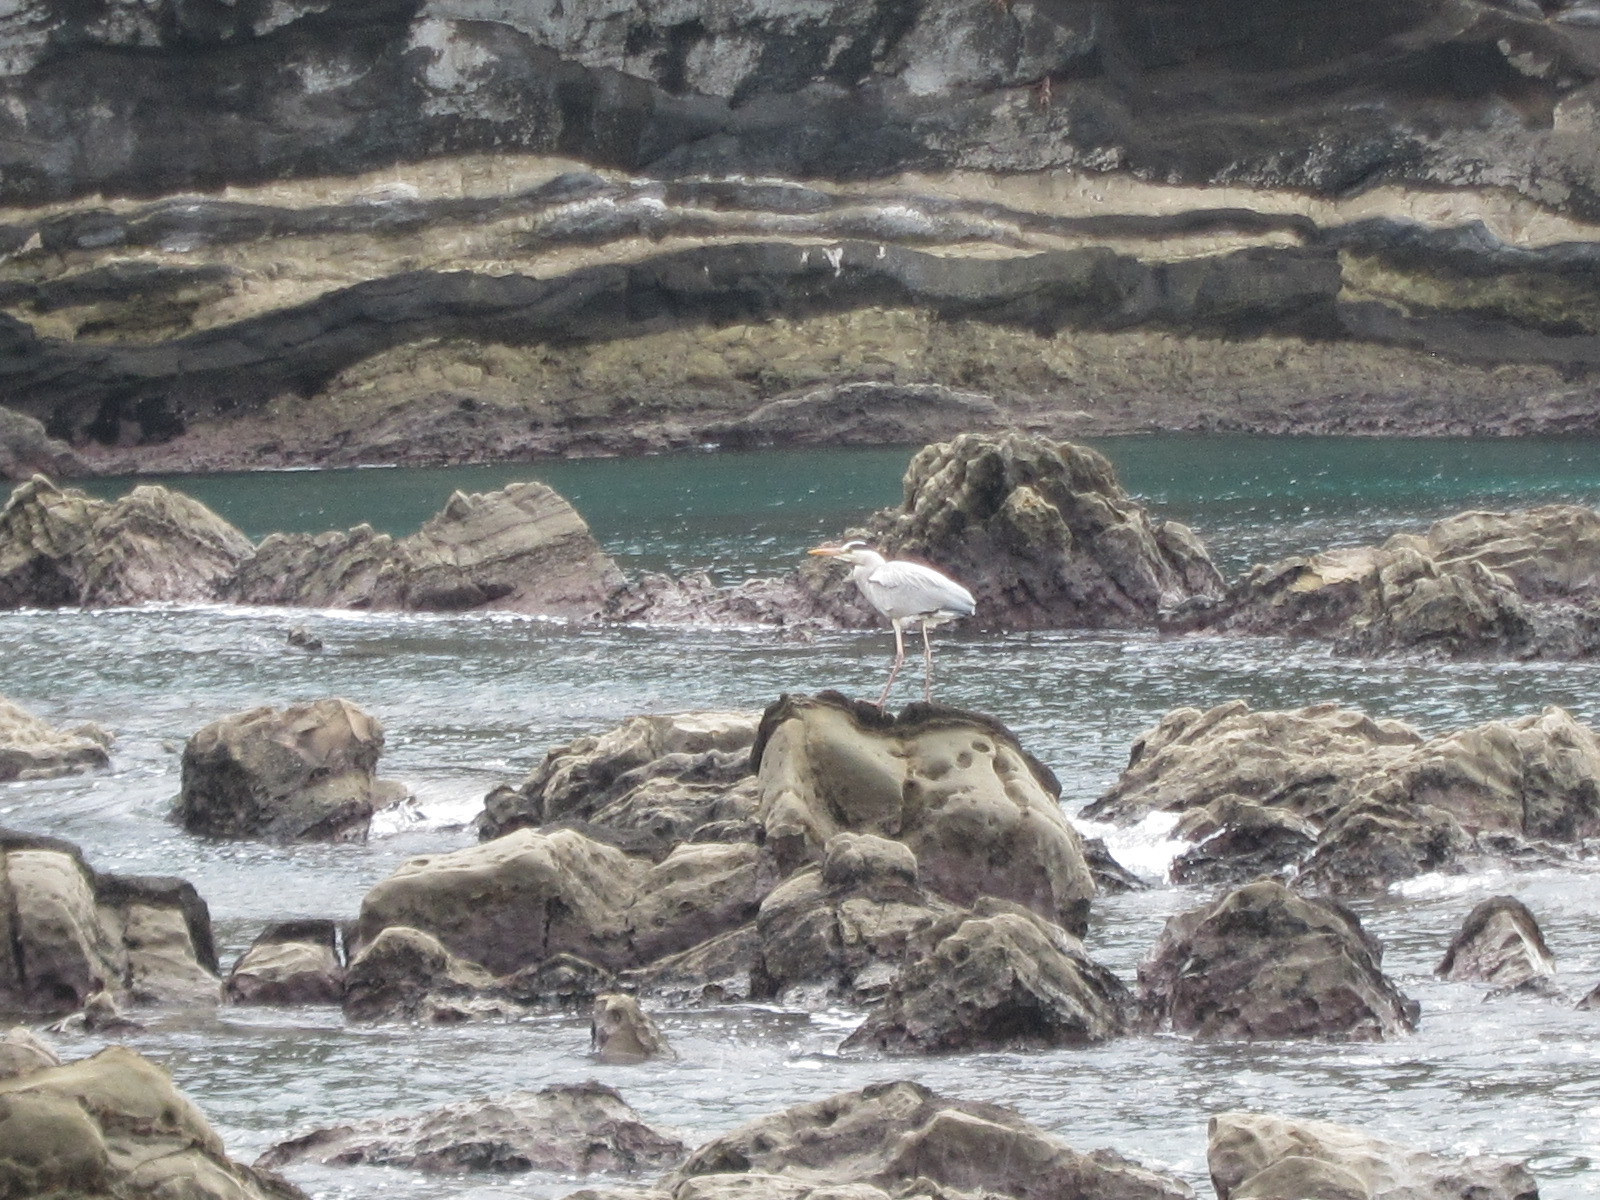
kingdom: Animalia
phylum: Chordata
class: Aves
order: Pelecaniformes
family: Ardeidae
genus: Ardea
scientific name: Ardea cinerea
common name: Grey heron
